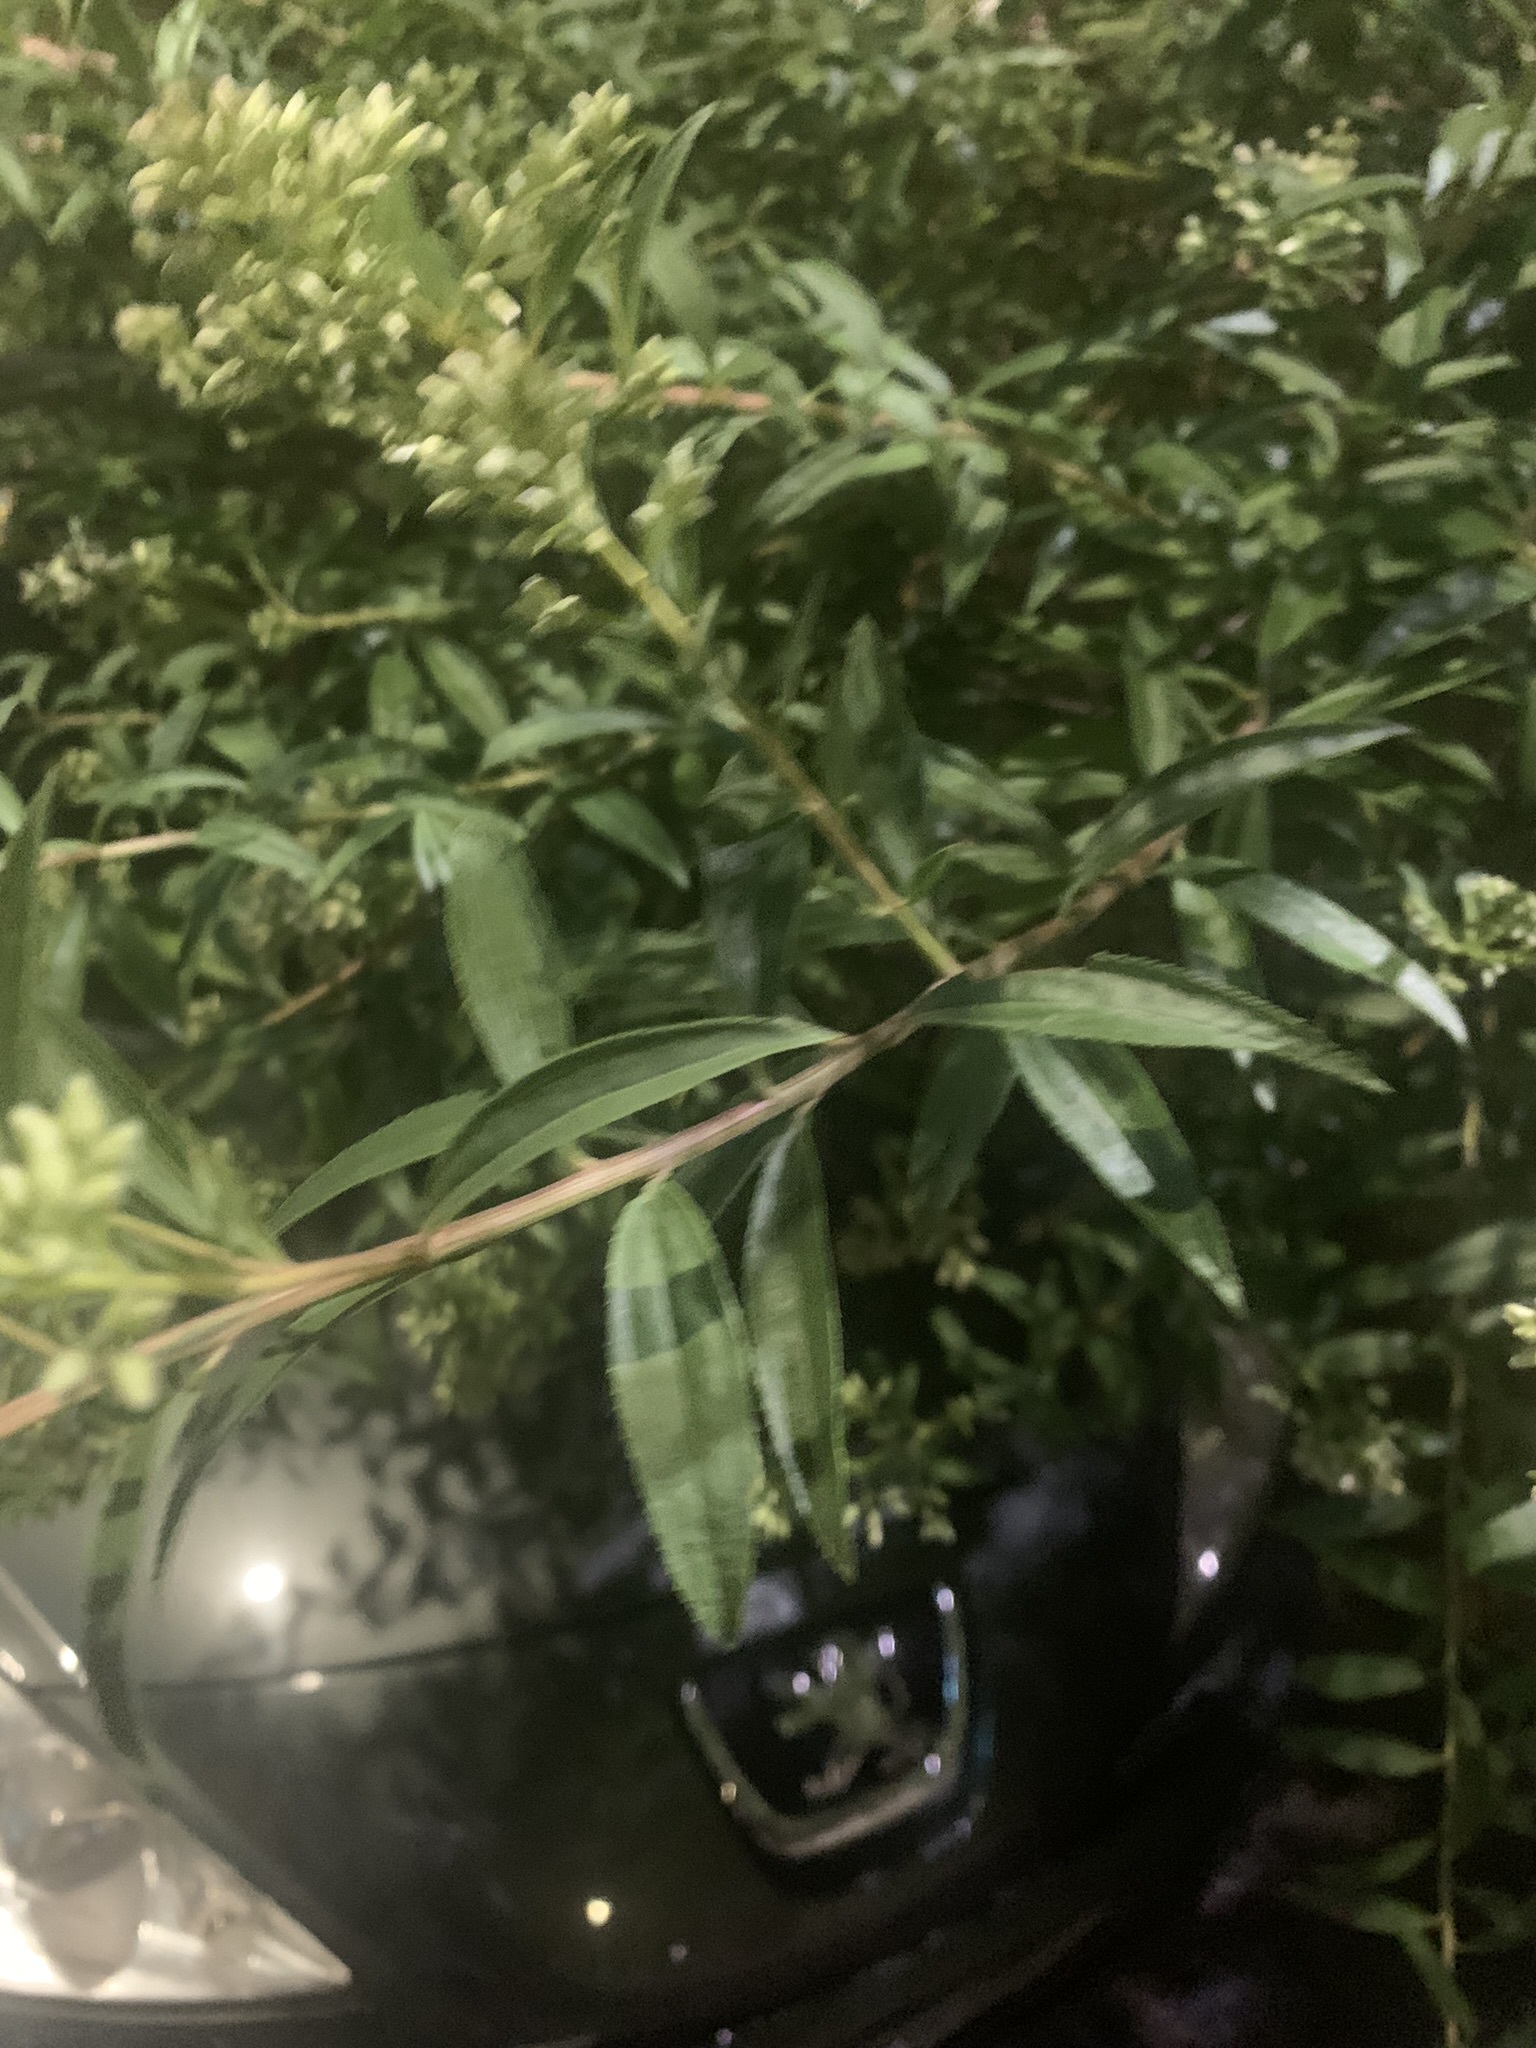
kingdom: Plantae
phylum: Tracheophyta
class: Magnoliopsida
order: Asterales
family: Asteraceae
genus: Baccharis
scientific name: Baccharis punctulata
